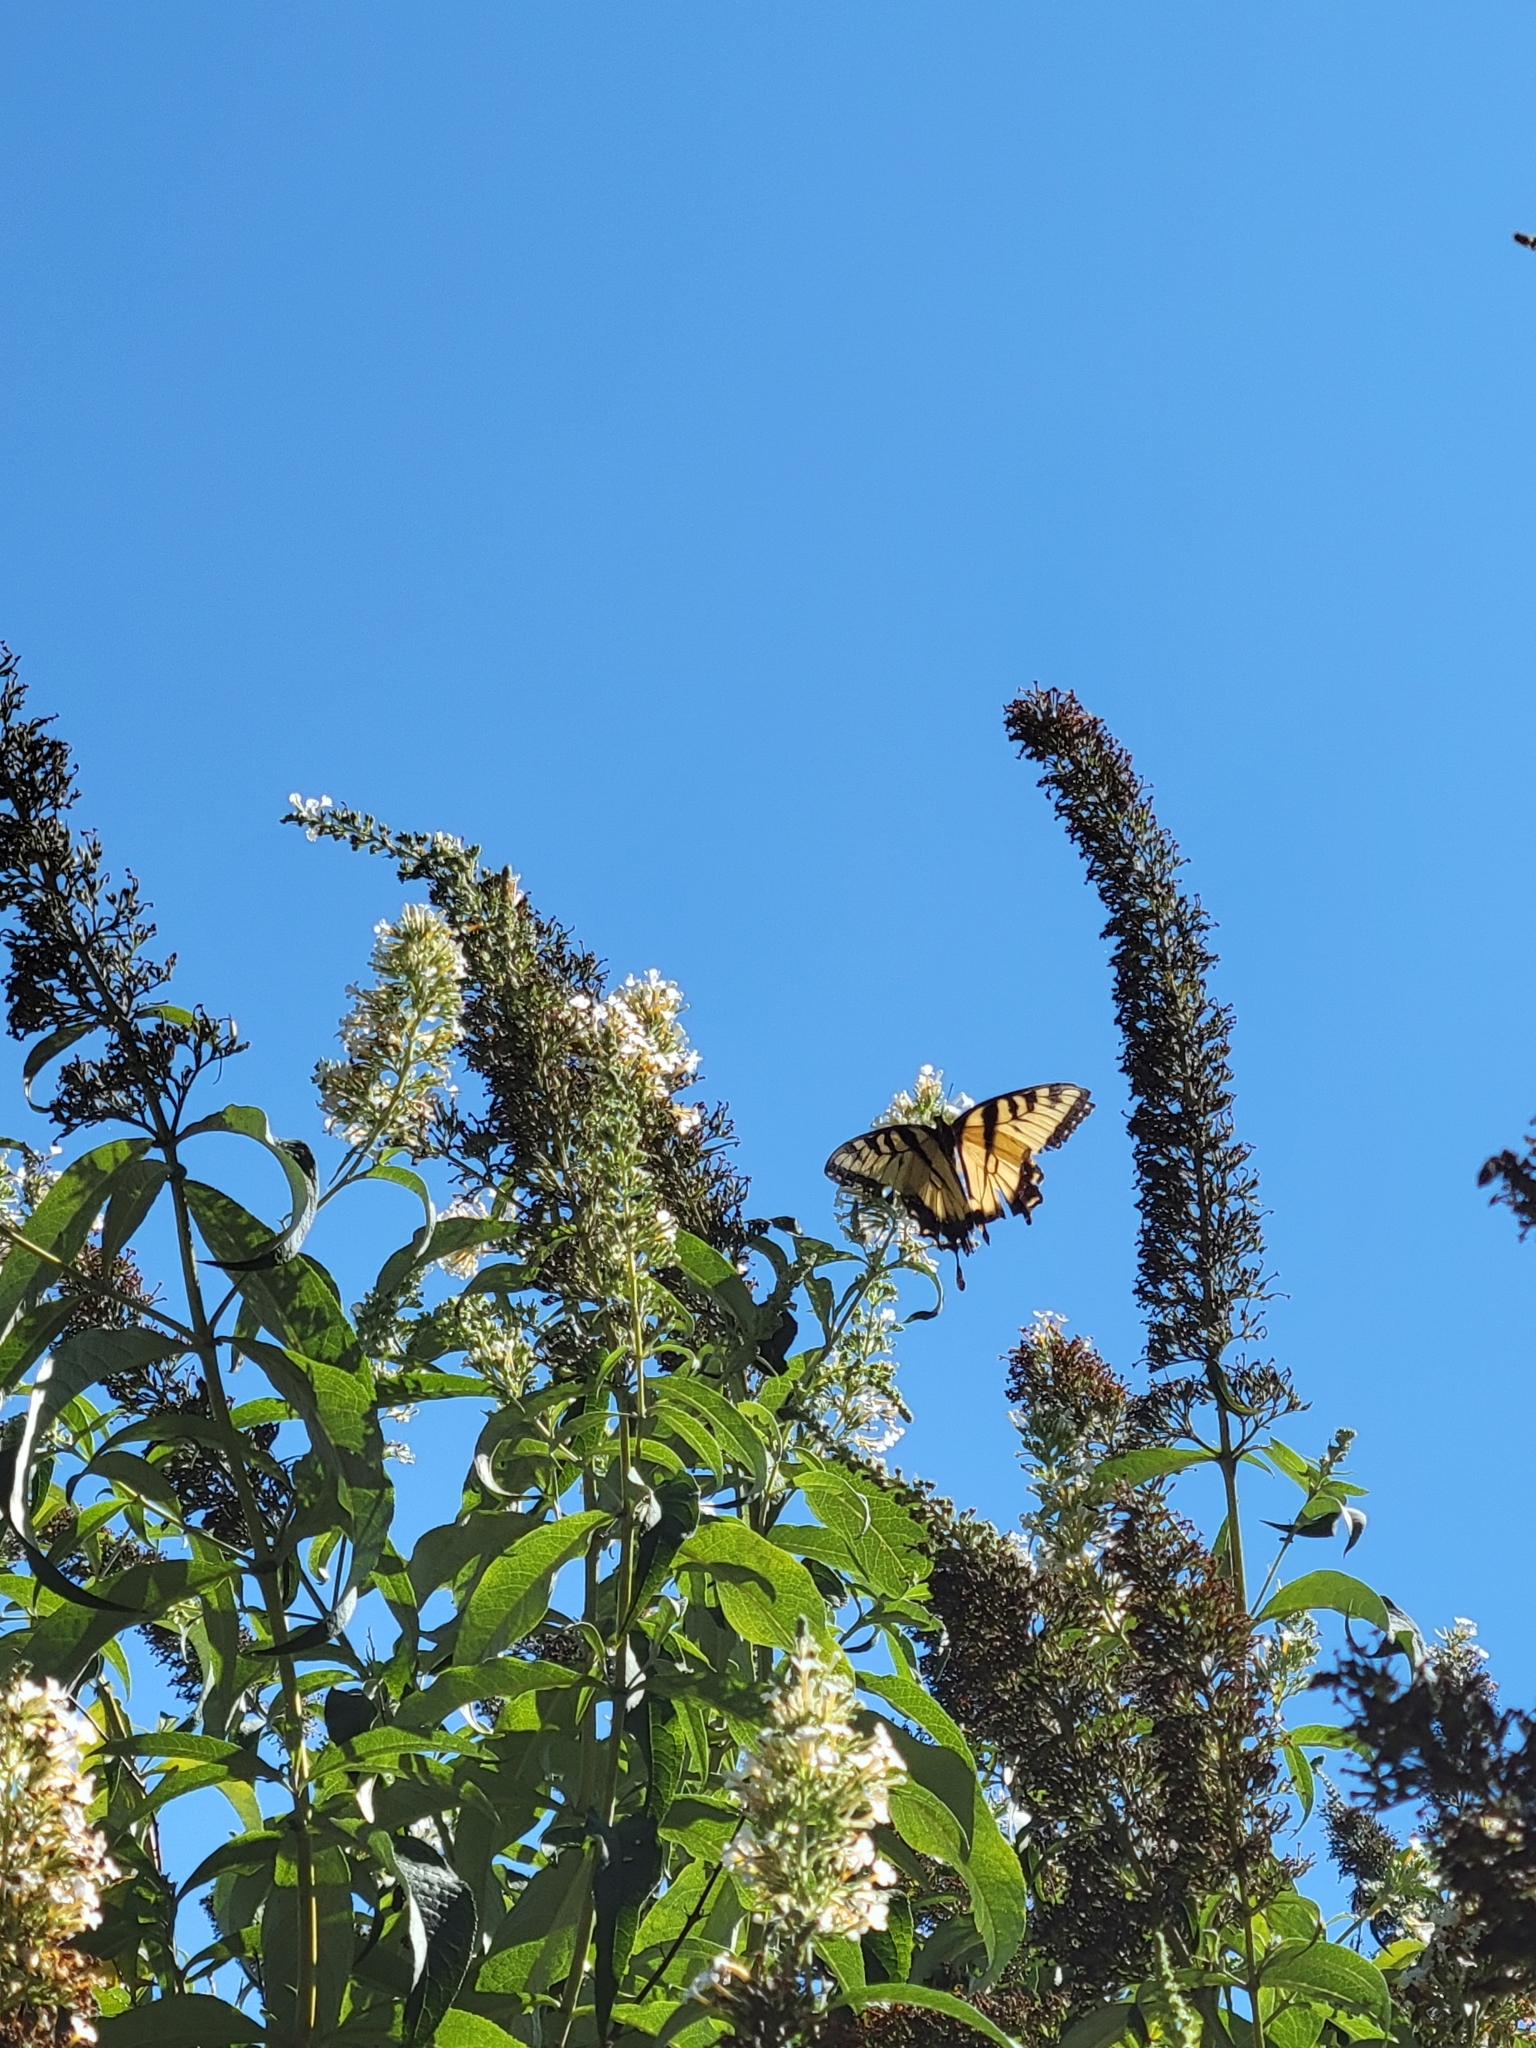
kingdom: Animalia
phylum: Arthropoda
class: Insecta
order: Lepidoptera
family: Papilionidae
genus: Papilio
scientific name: Papilio glaucus
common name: Tiger swallowtail
